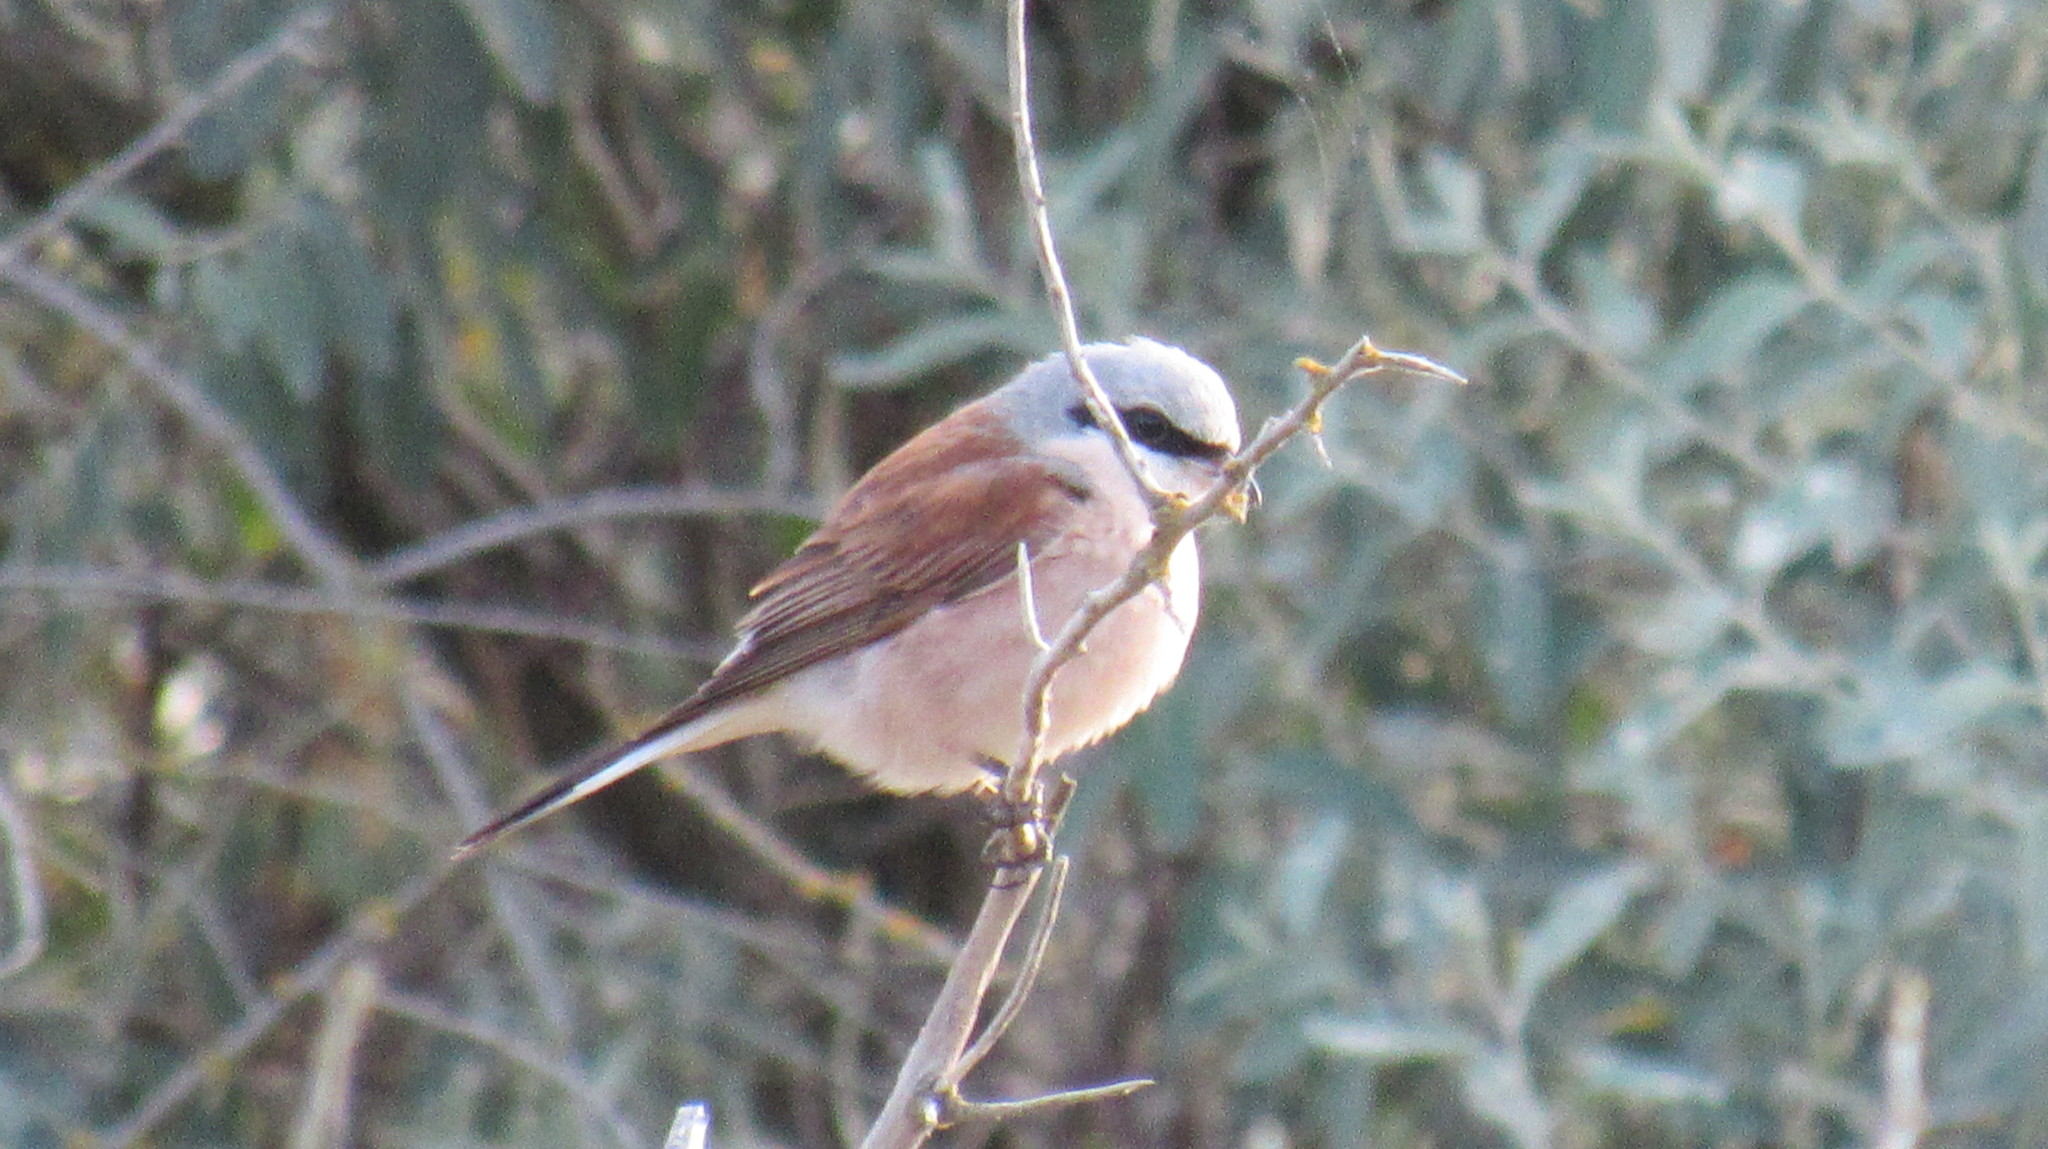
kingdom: Animalia
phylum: Chordata
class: Aves
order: Passeriformes
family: Laniidae
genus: Lanius
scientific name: Lanius collurio
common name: Red-backed shrike
